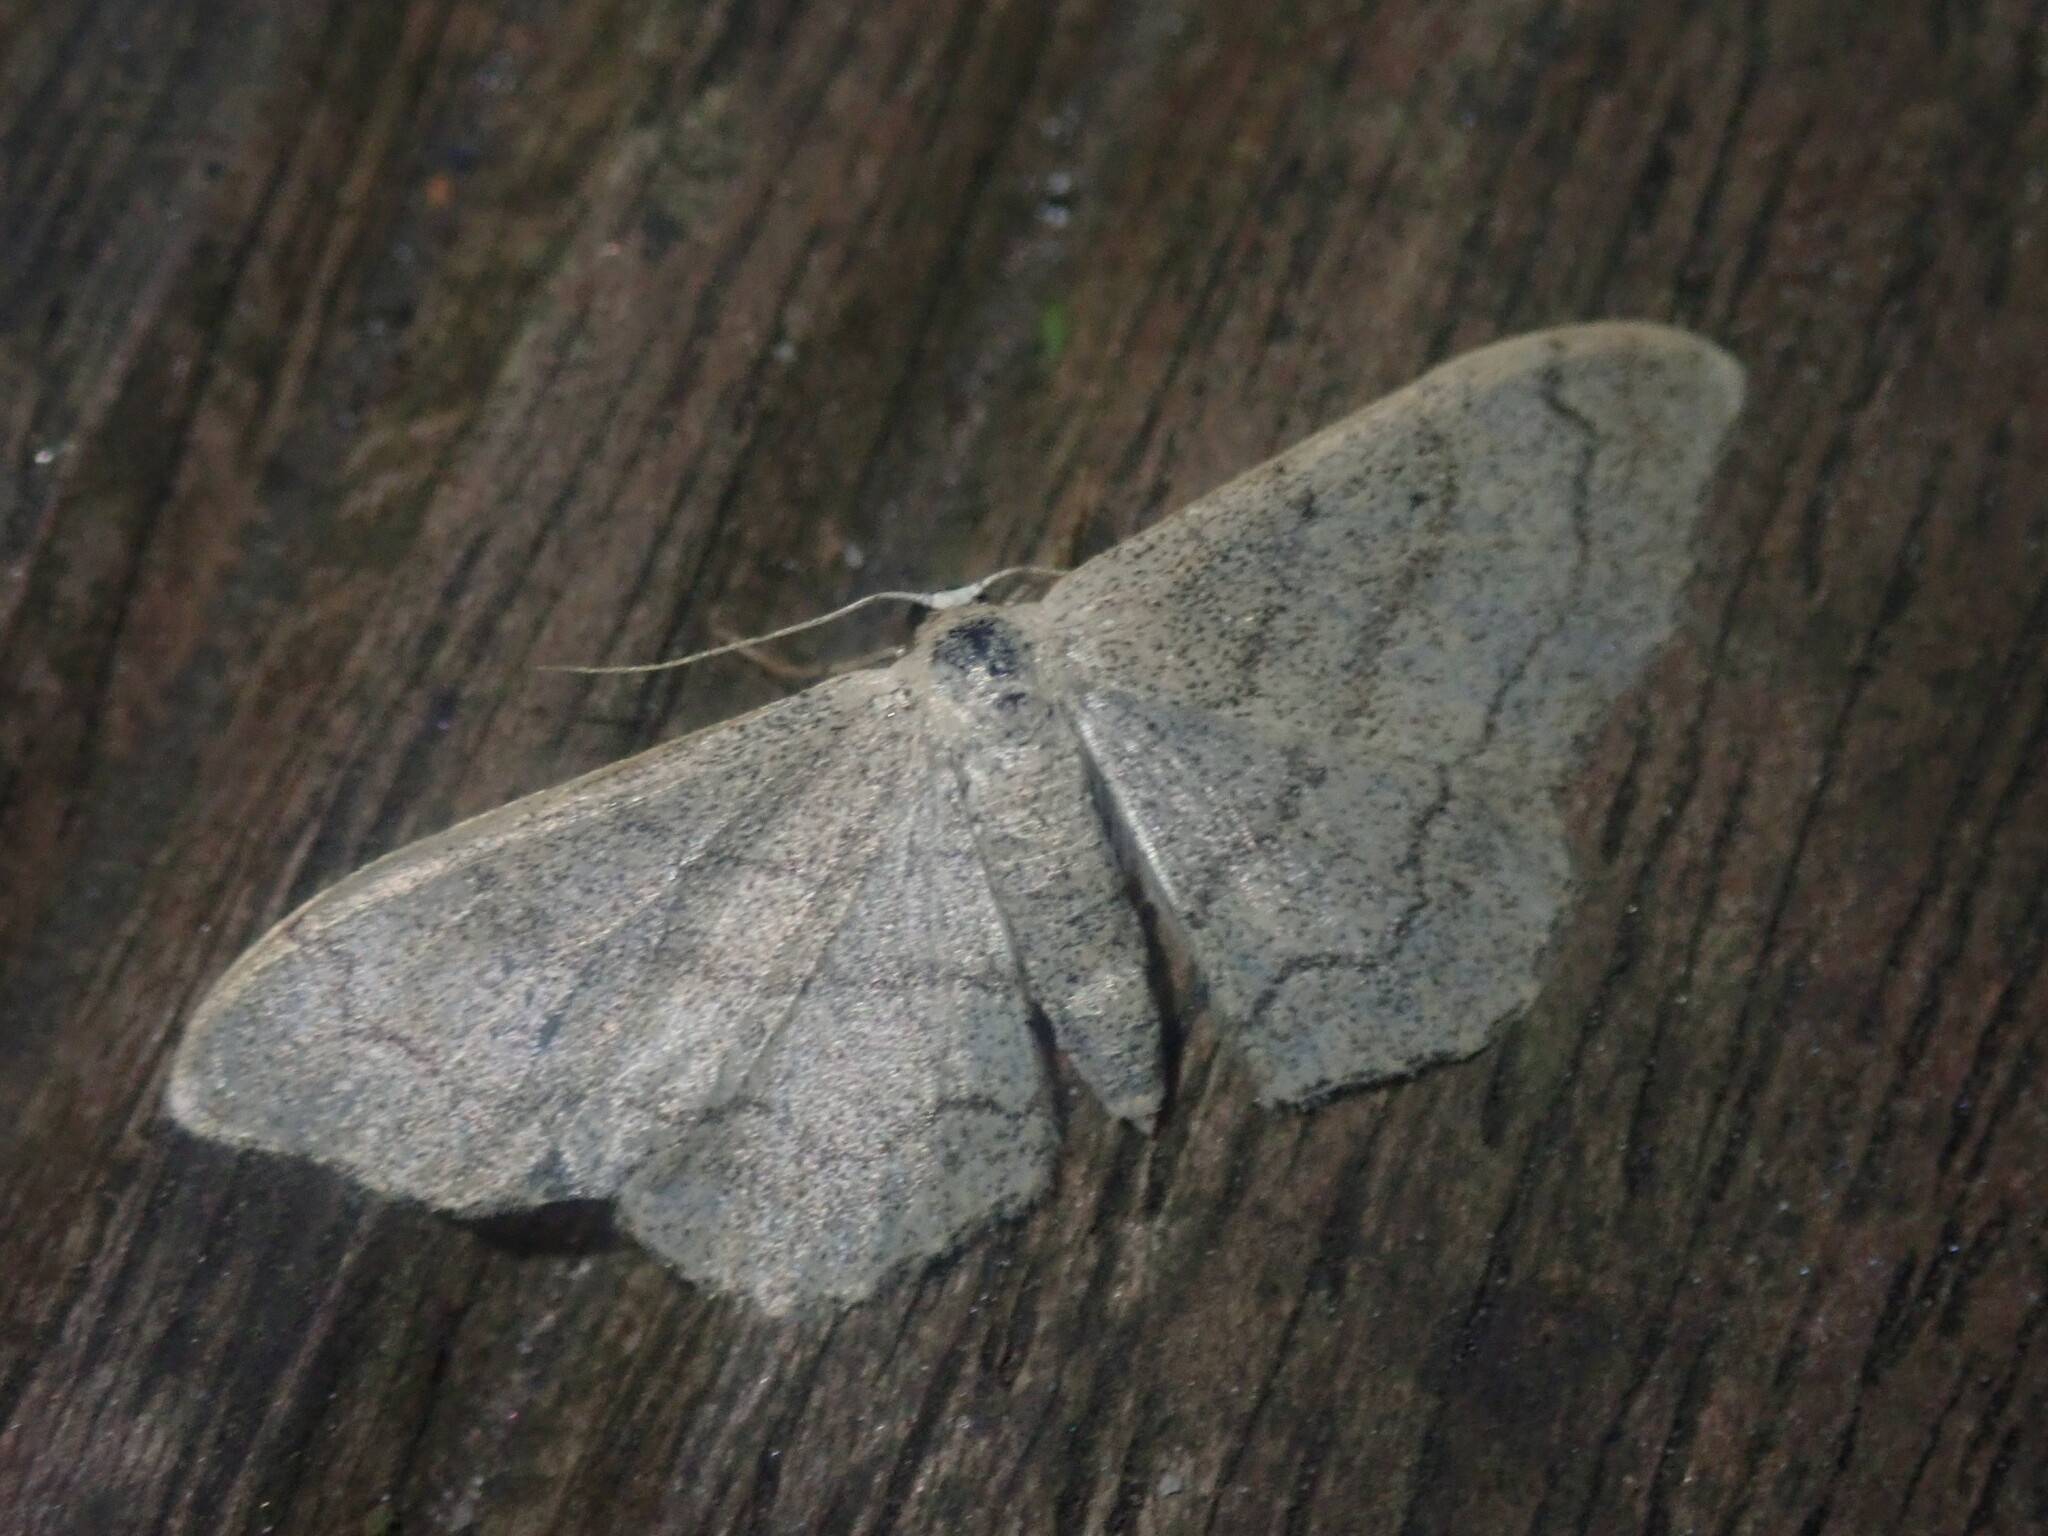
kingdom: Animalia
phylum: Arthropoda
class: Insecta
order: Lepidoptera
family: Geometridae
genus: Idaea
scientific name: Idaea aversata
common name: Riband wave
